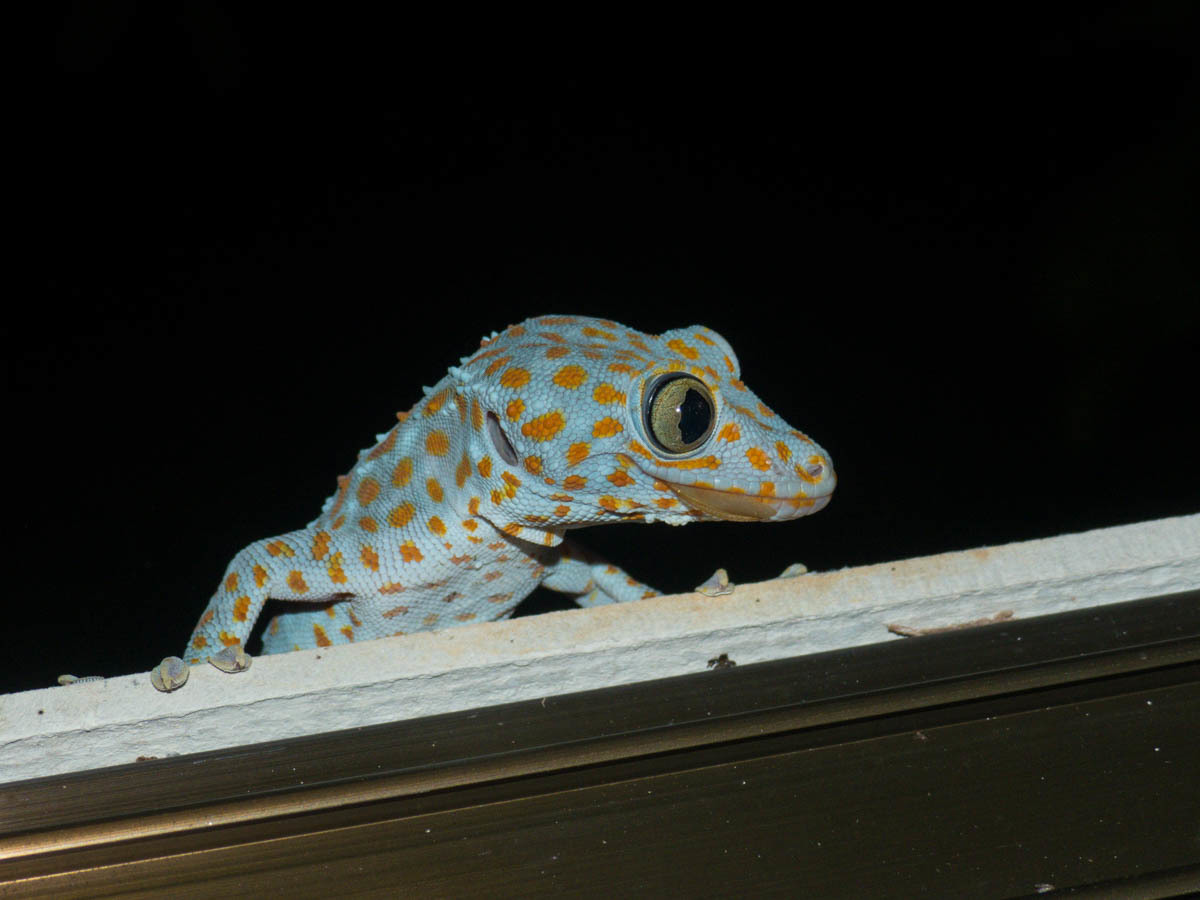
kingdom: Animalia
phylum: Chordata
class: Squamata
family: Gekkonidae
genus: Gekko
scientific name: Gekko gecko
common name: Tokay gecko
